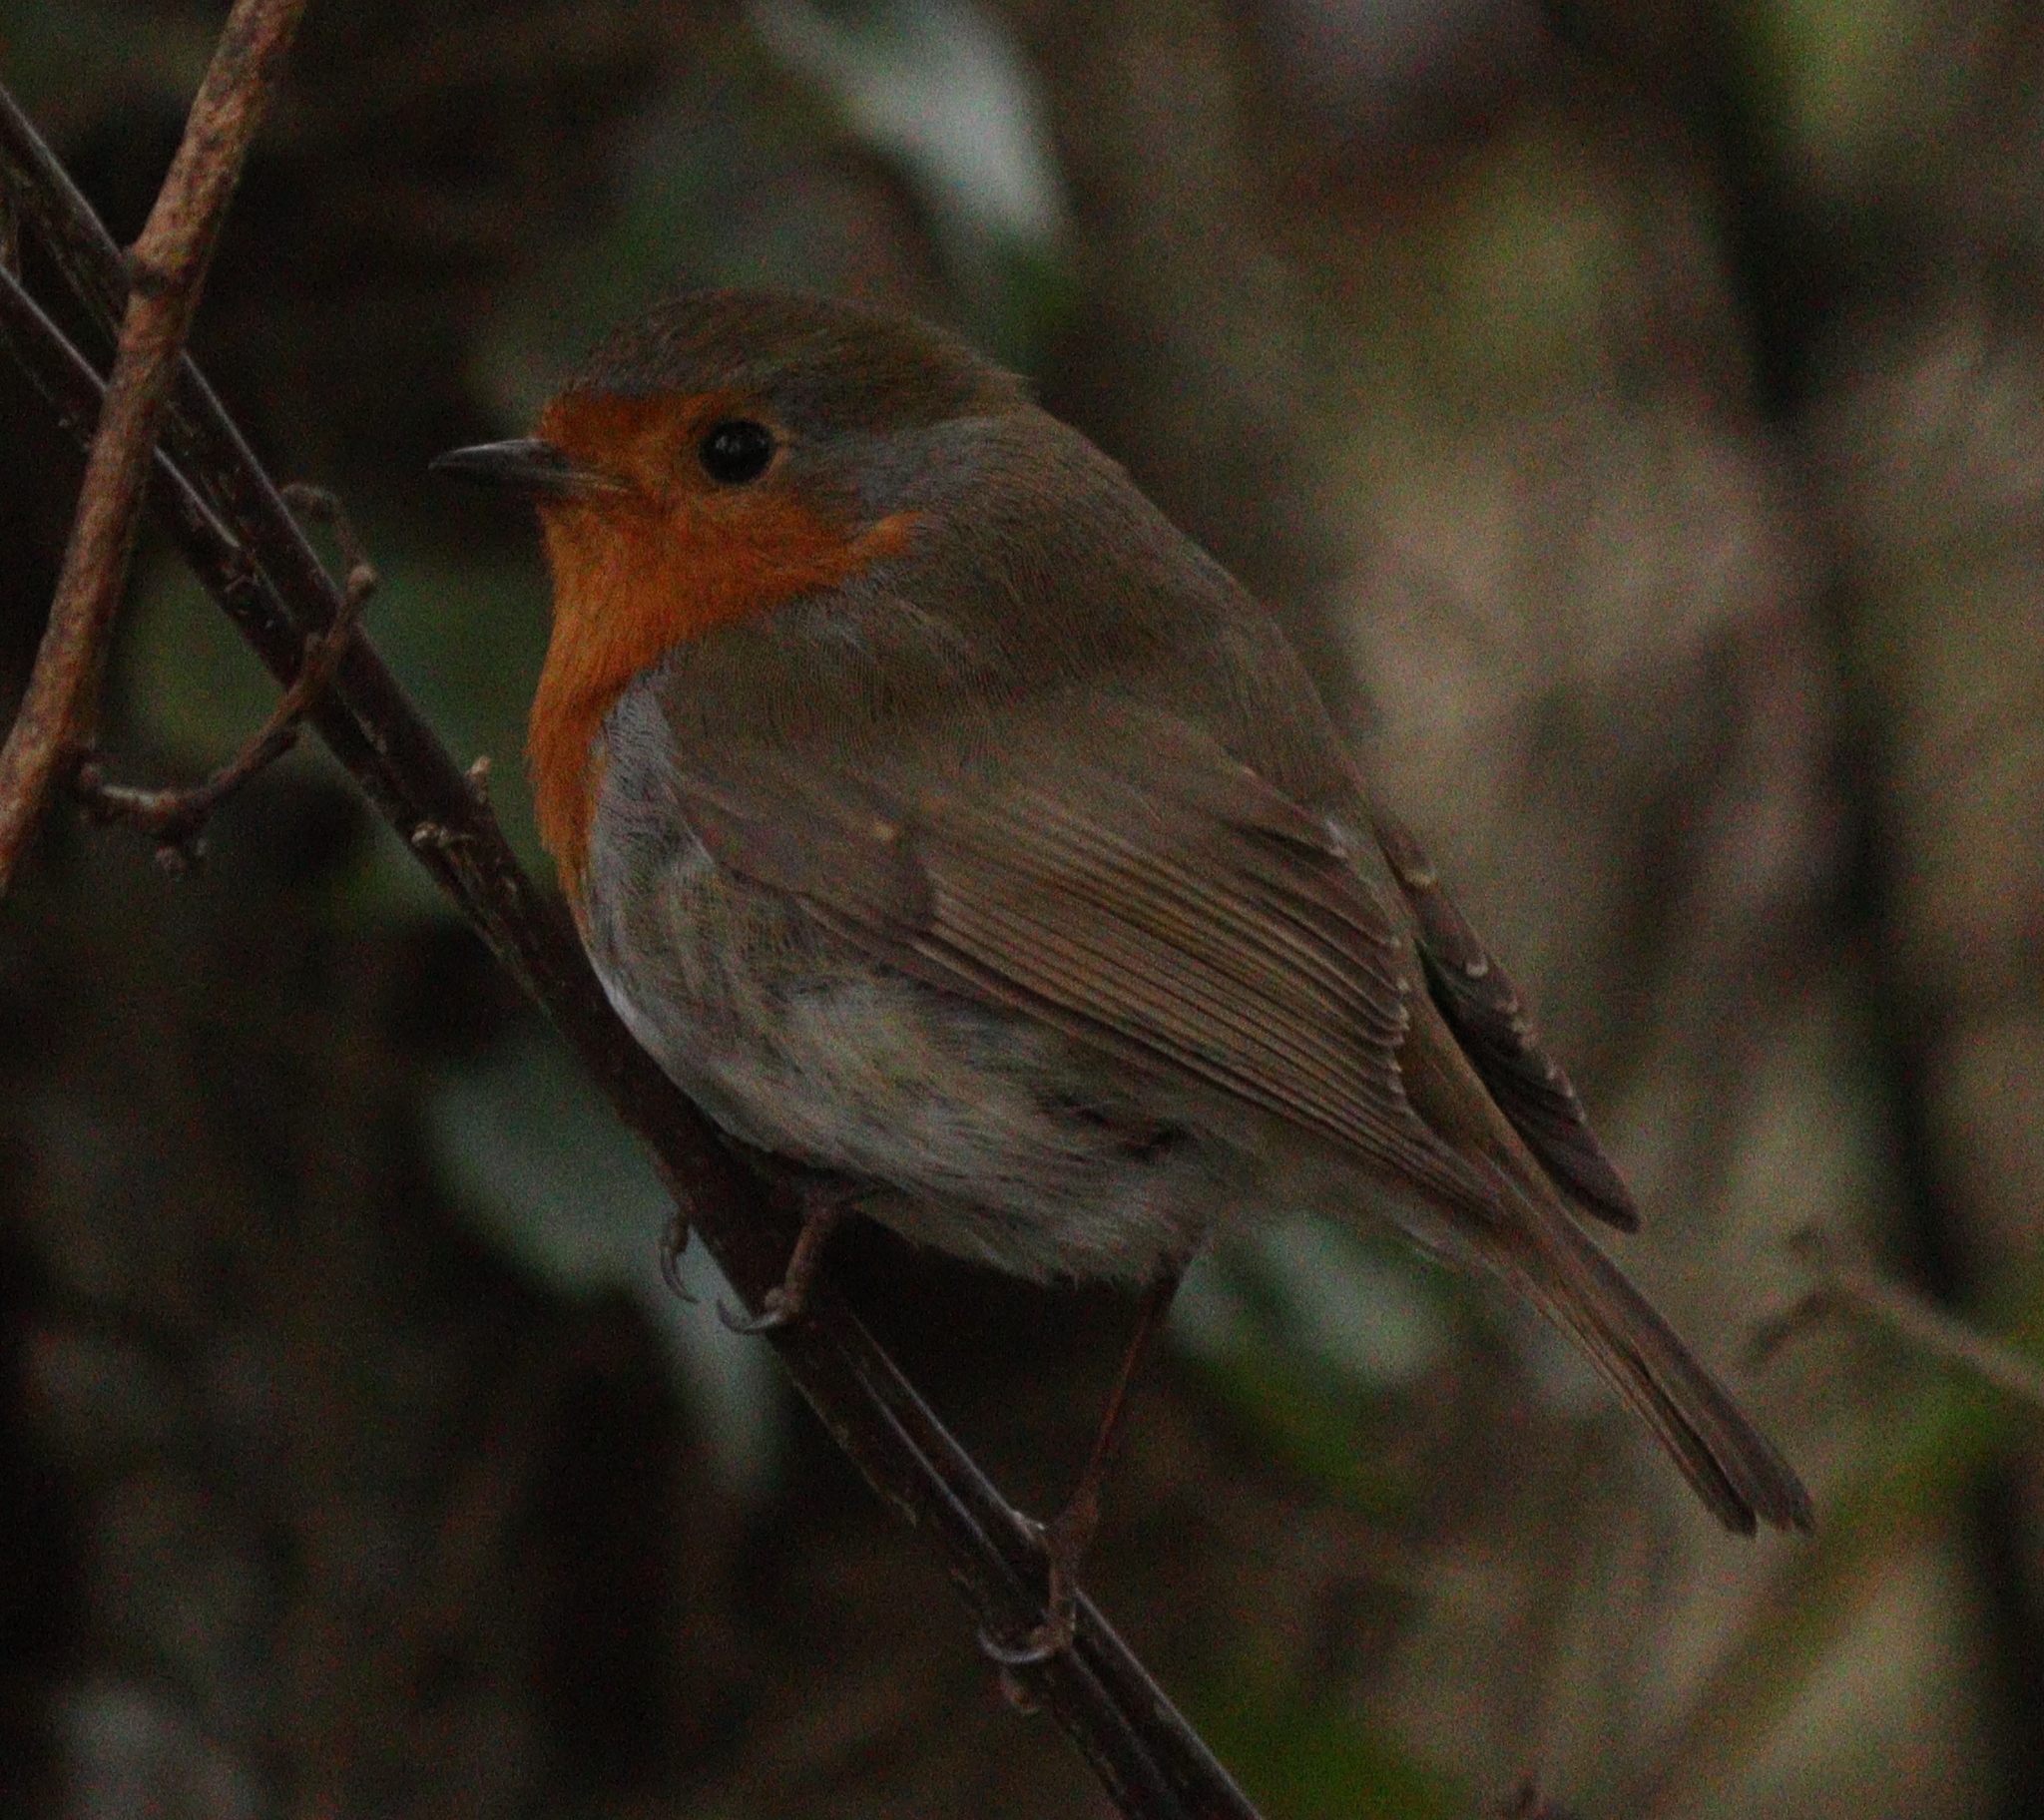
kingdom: Animalia
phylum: Chordata
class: Aves
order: Passeriformes
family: Muscicapidae
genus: Erithacus
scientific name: Erithacus rubecula
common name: European robin
